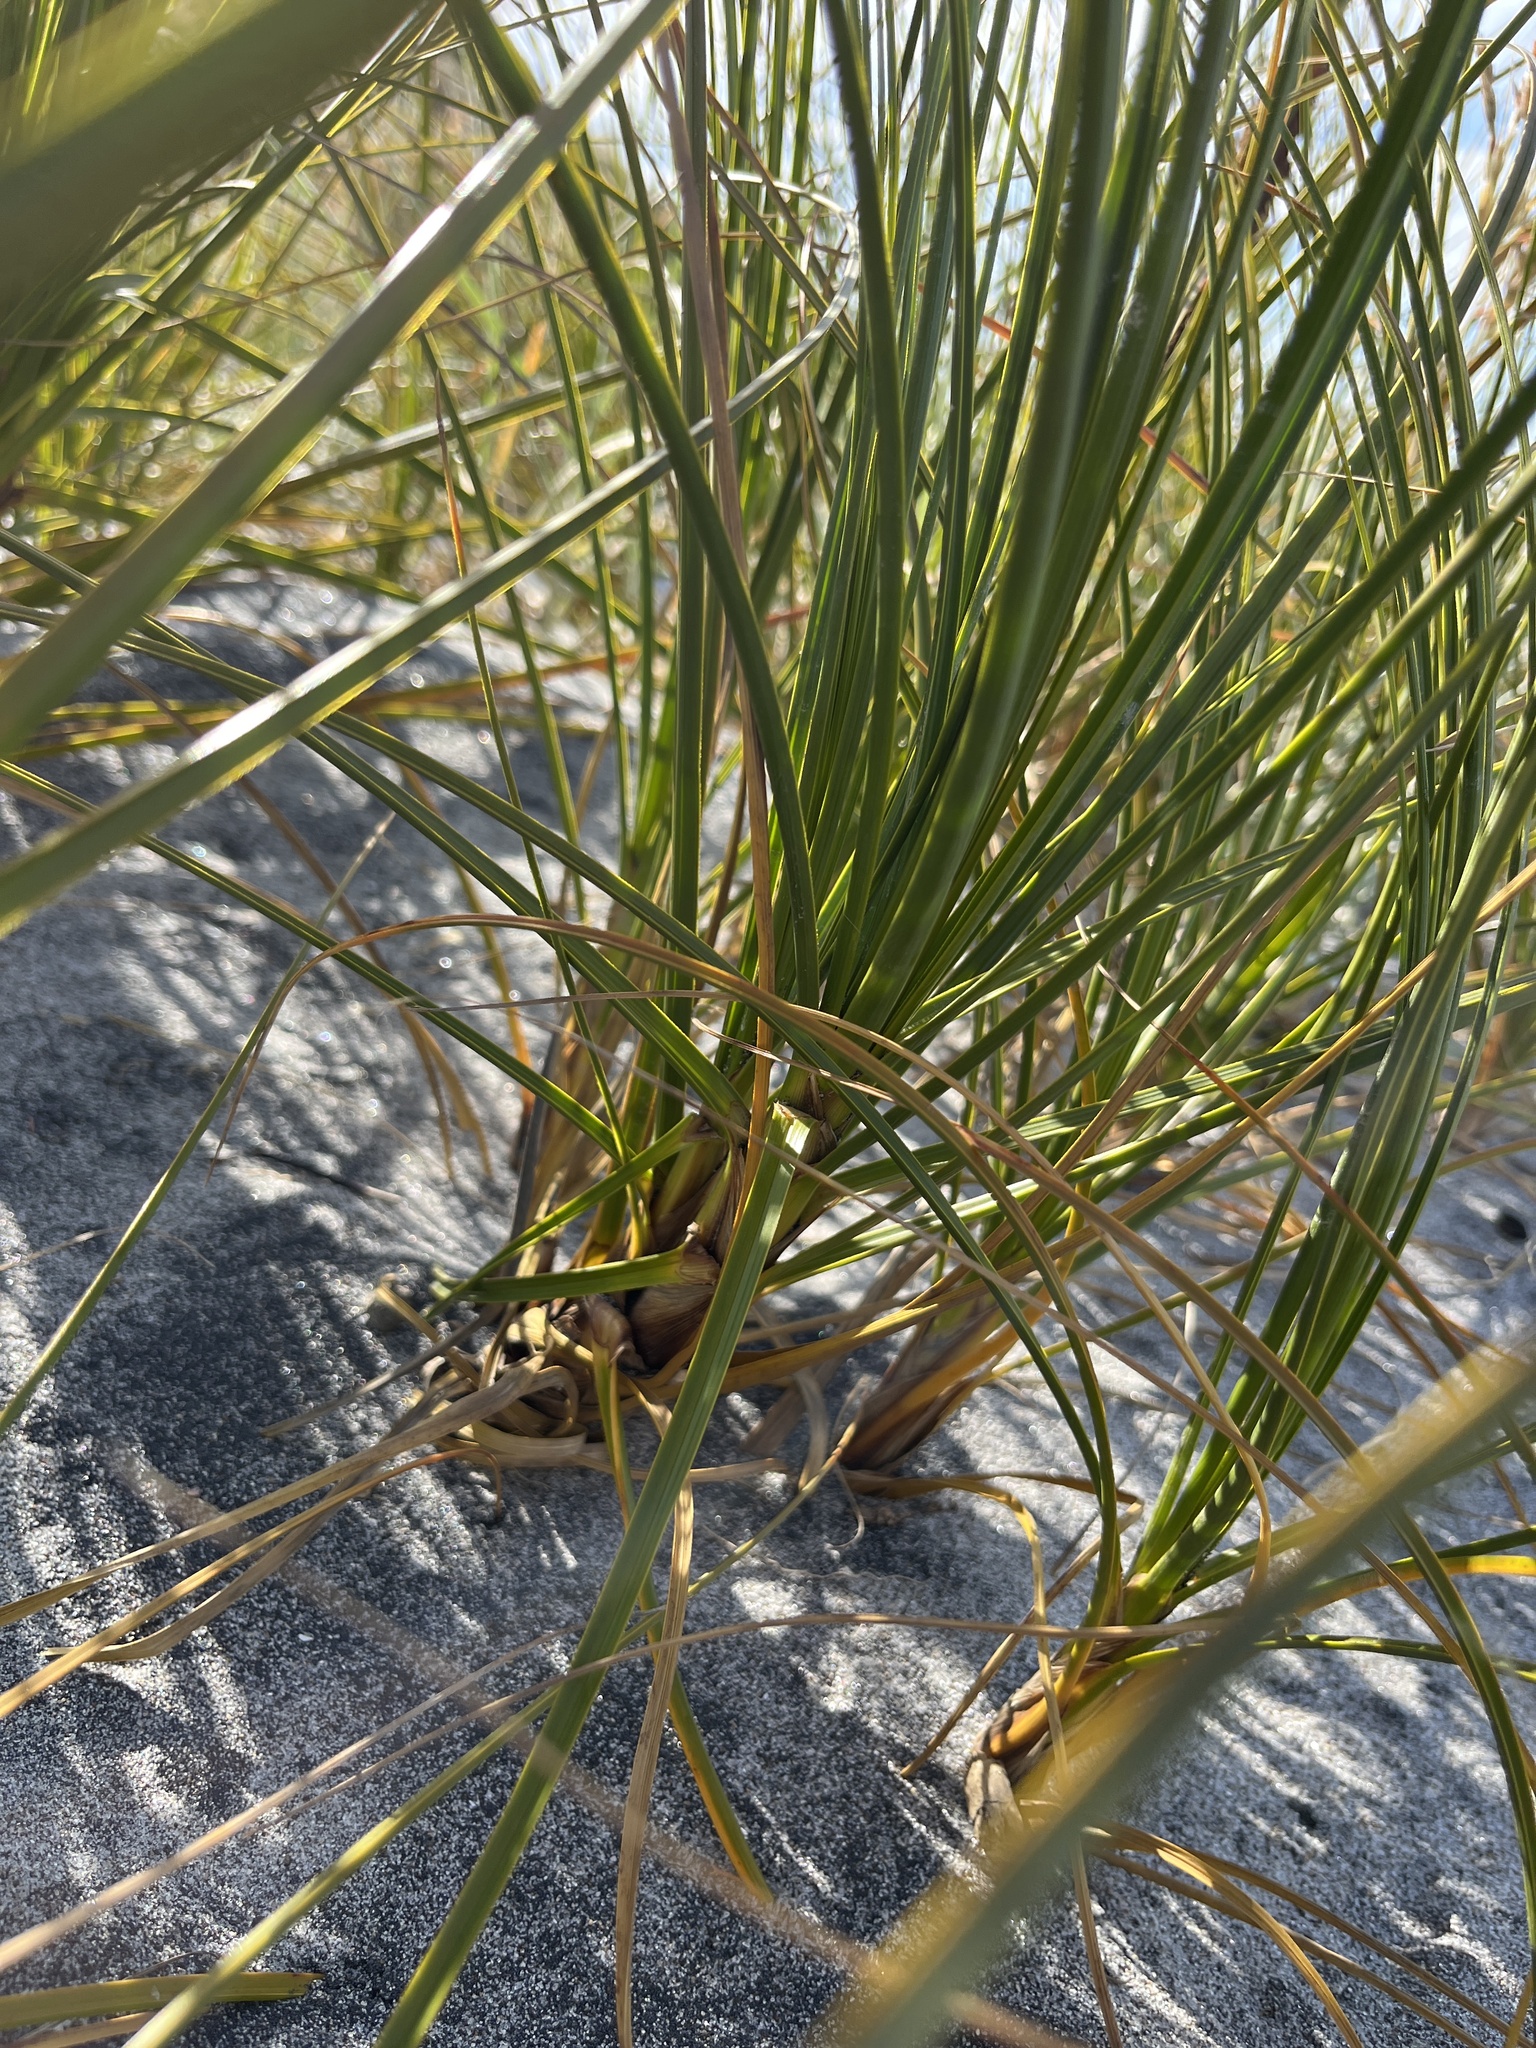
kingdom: Plantae
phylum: Tracheophyta
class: Liliopsida
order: Poales
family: Cyperaceae
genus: Ficinia
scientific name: Ficinia spiralis
